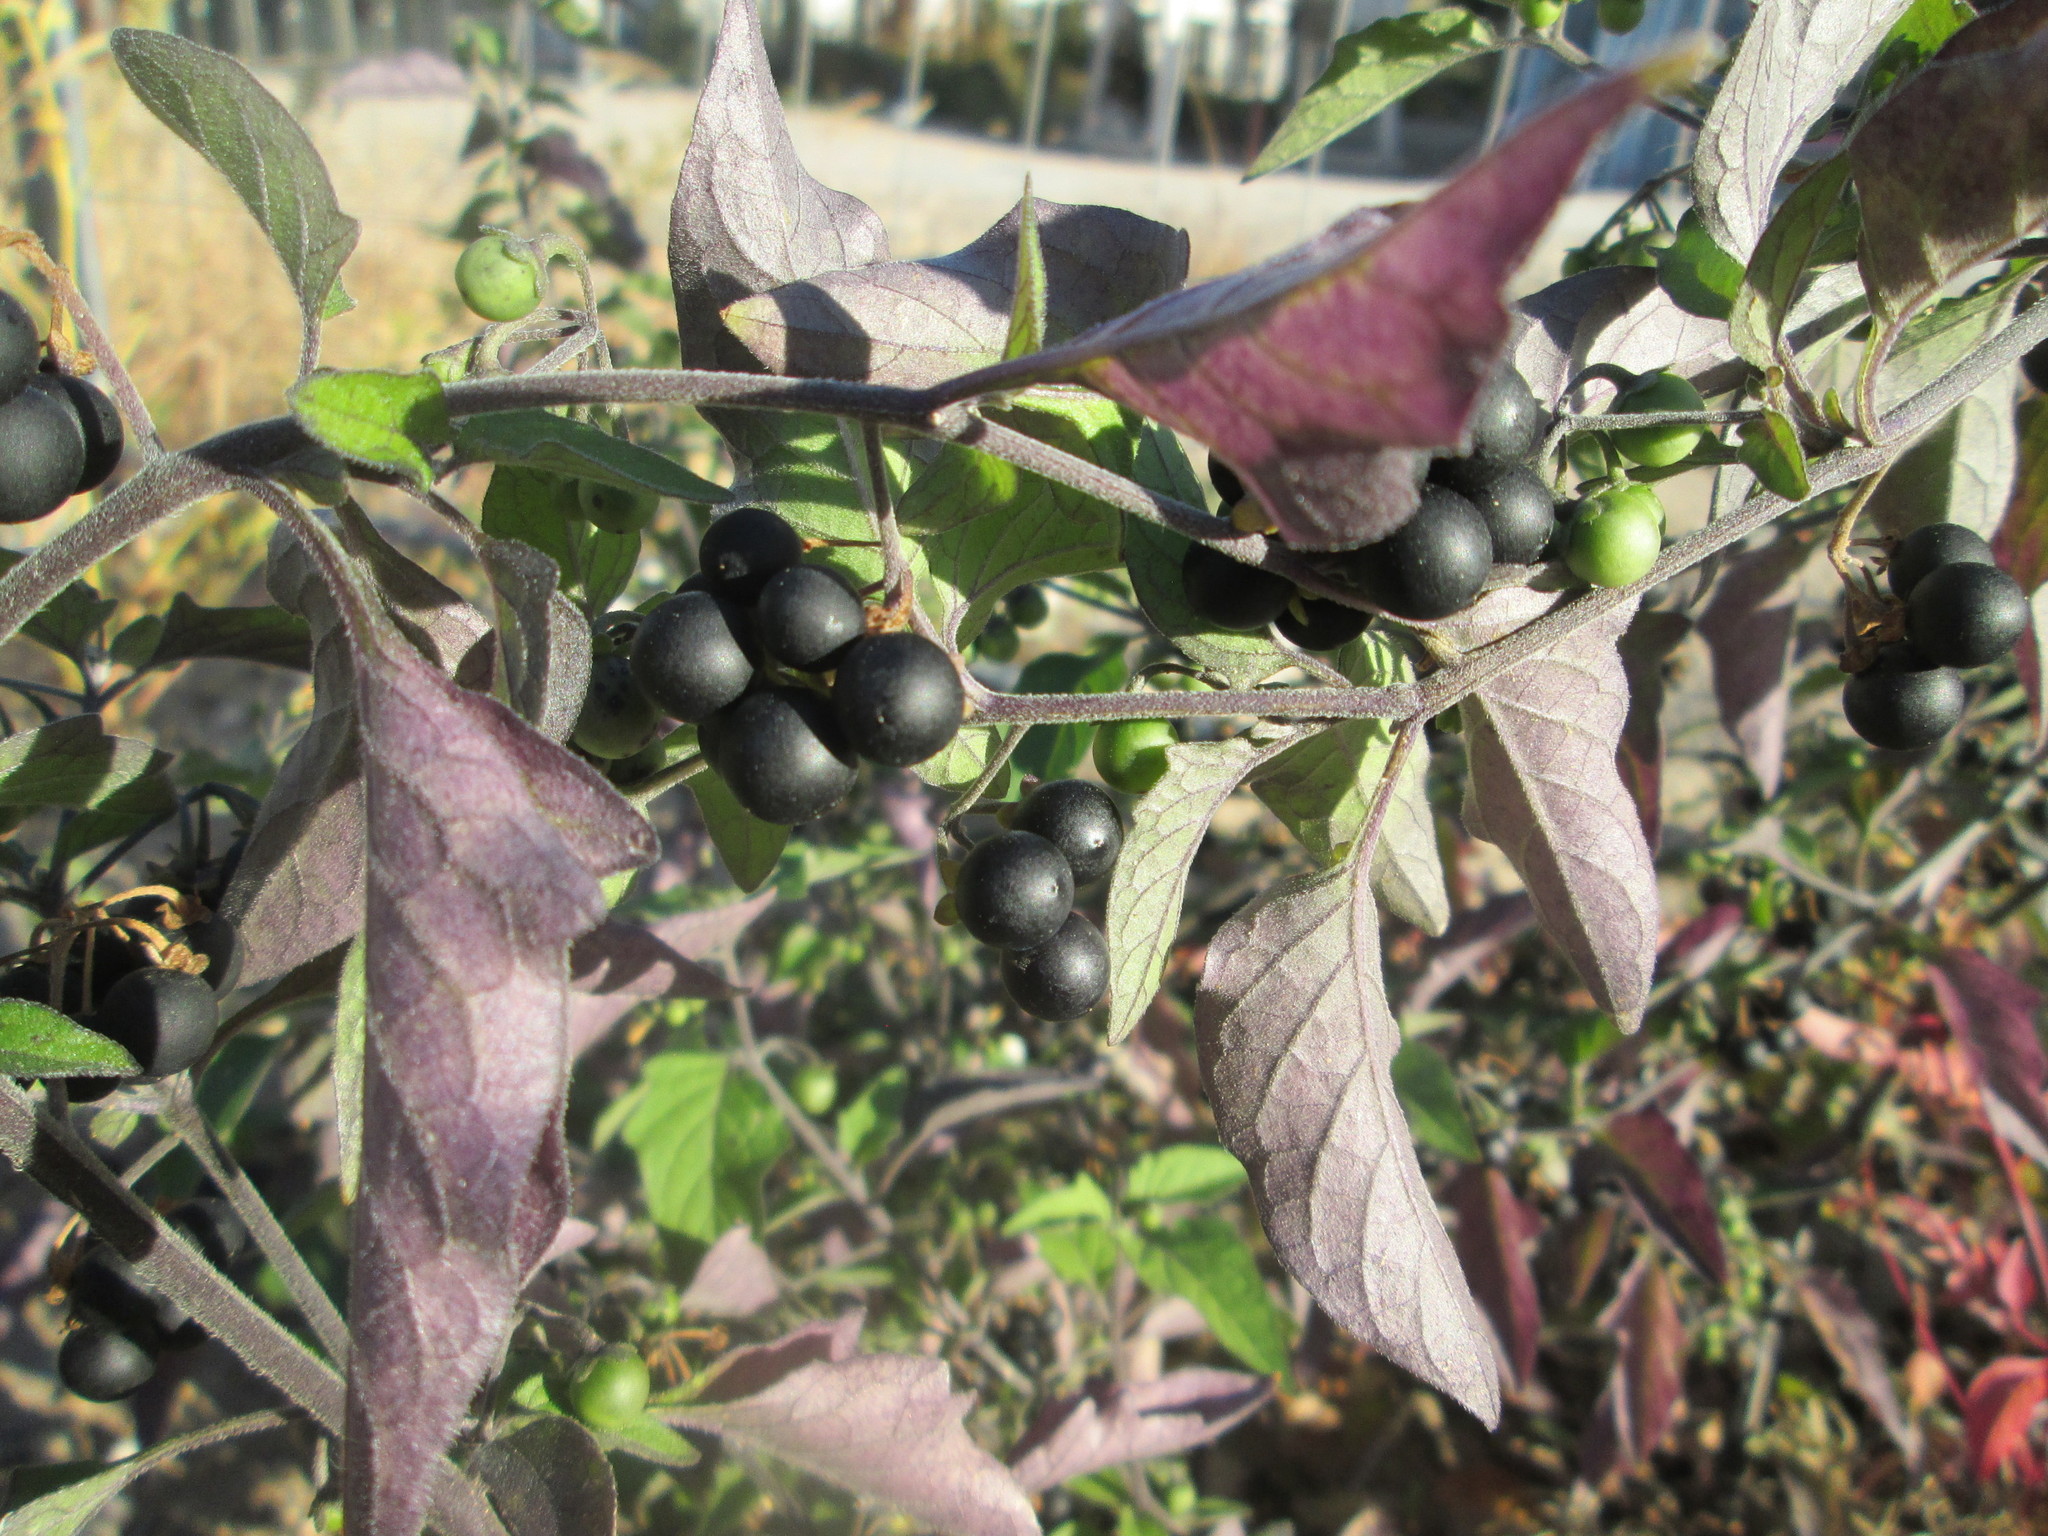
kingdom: Plantae
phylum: Tracheophyta
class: Magnoliopsida
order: Solanales
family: Solanaceae
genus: Solanum
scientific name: Solanum nigrum
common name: Black nightshade
